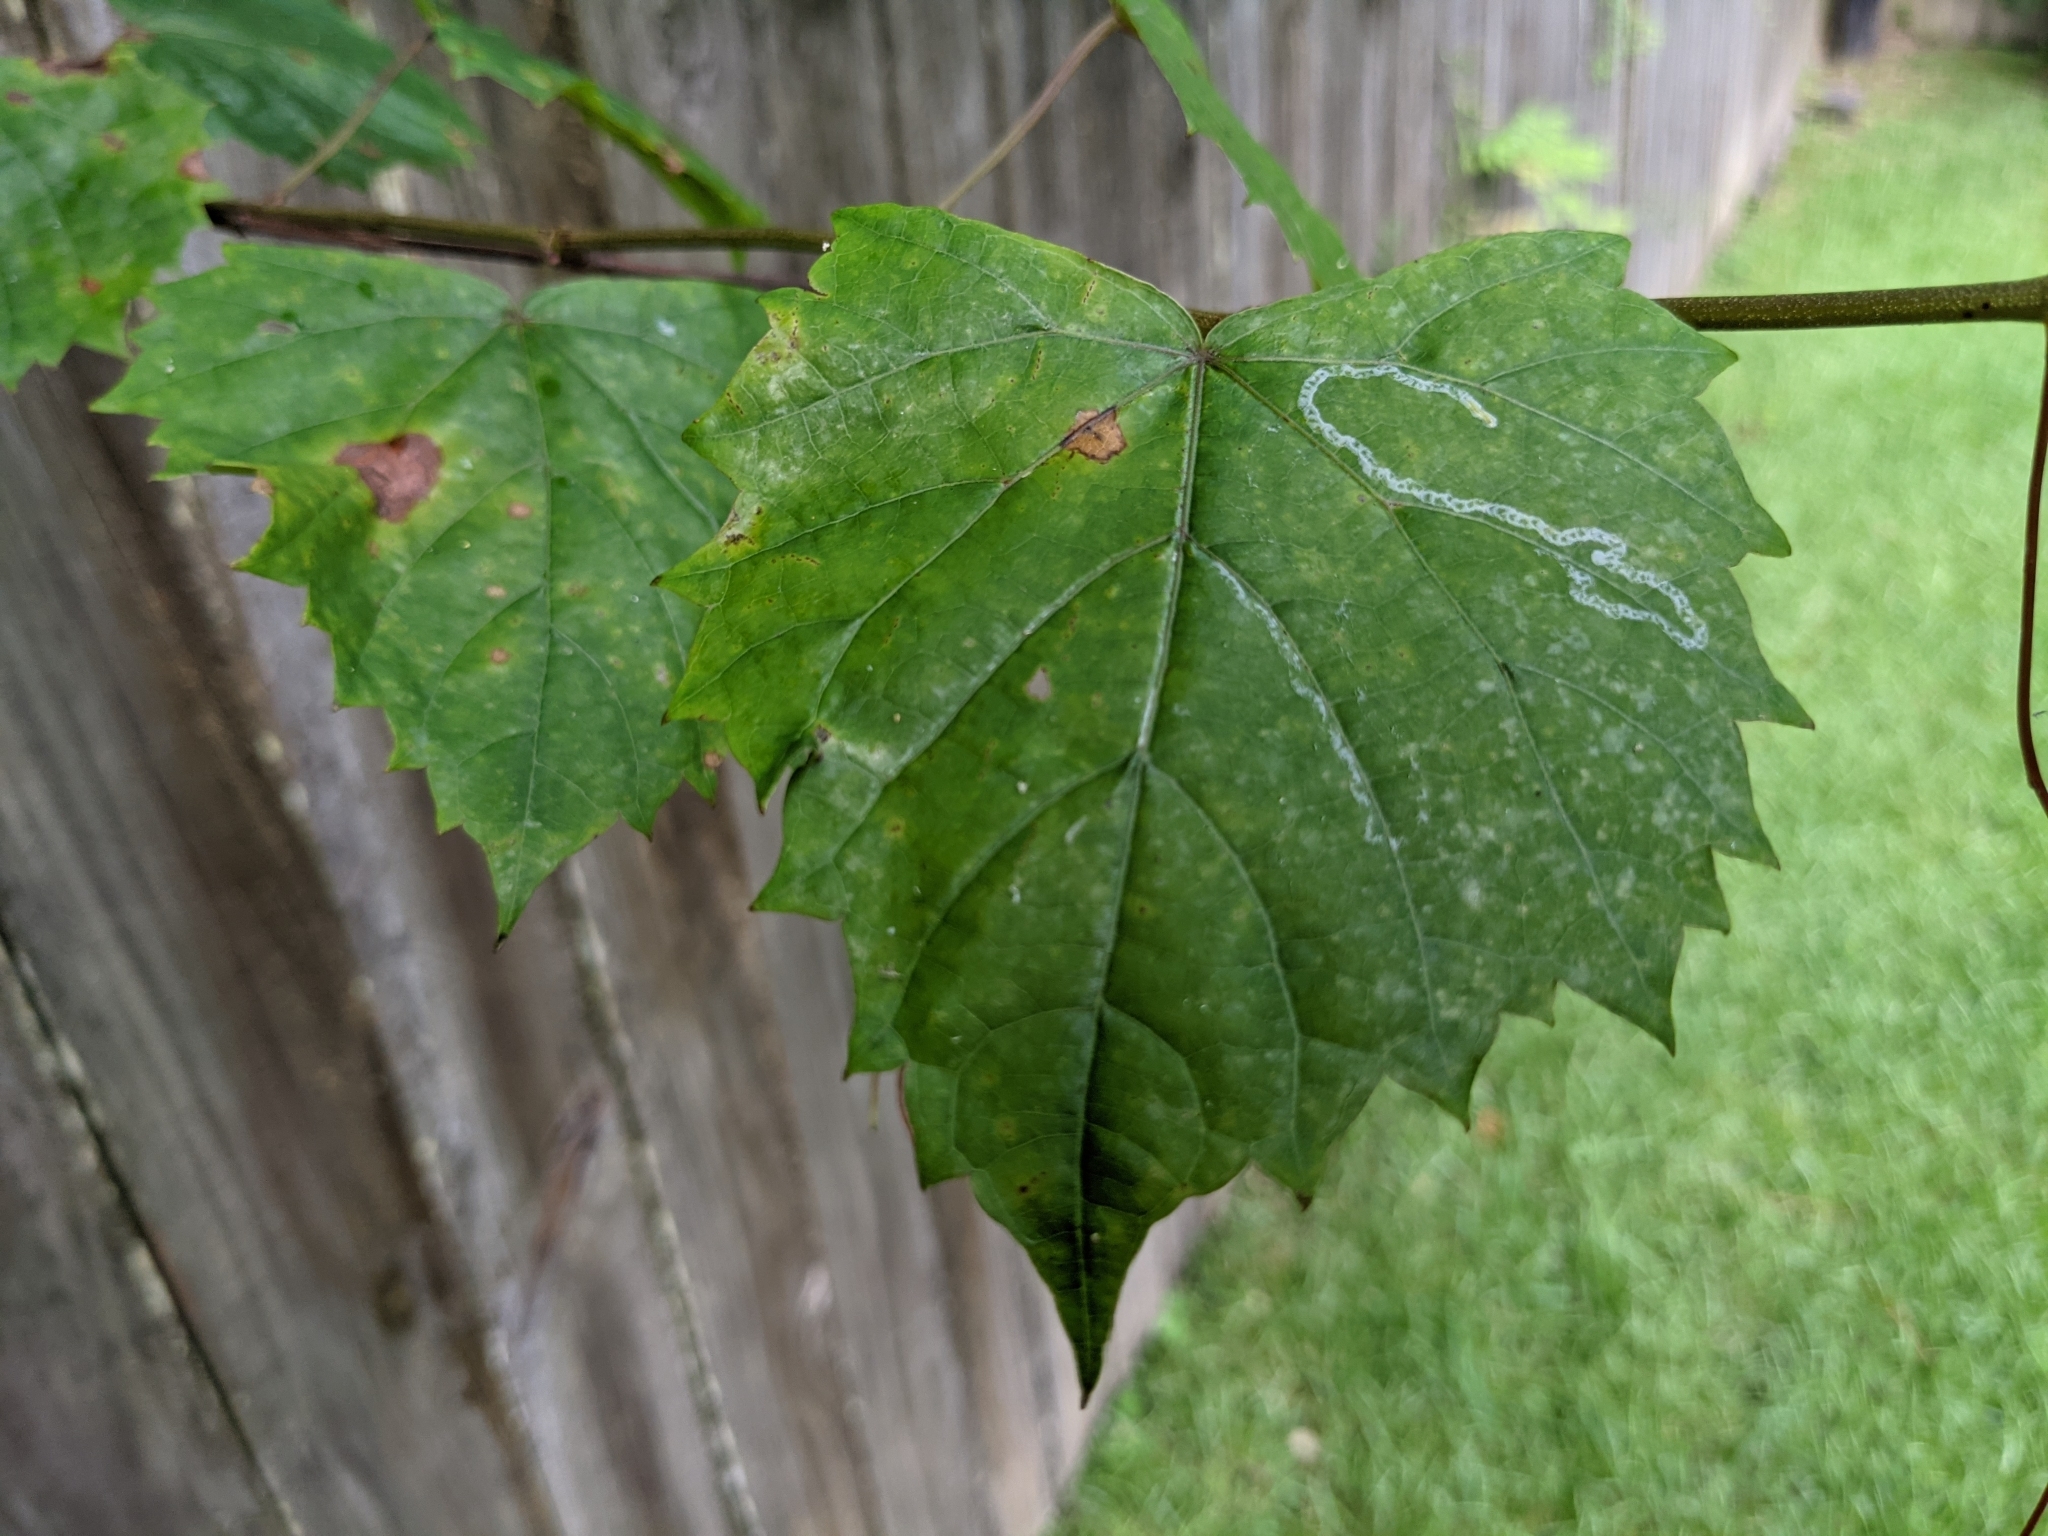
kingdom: Animalia
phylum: Arthropoda
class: Insecta
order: Lepidoptera
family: Gracillariidae
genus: Phyllocnistis
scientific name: Phyllocnistis vitegenella
